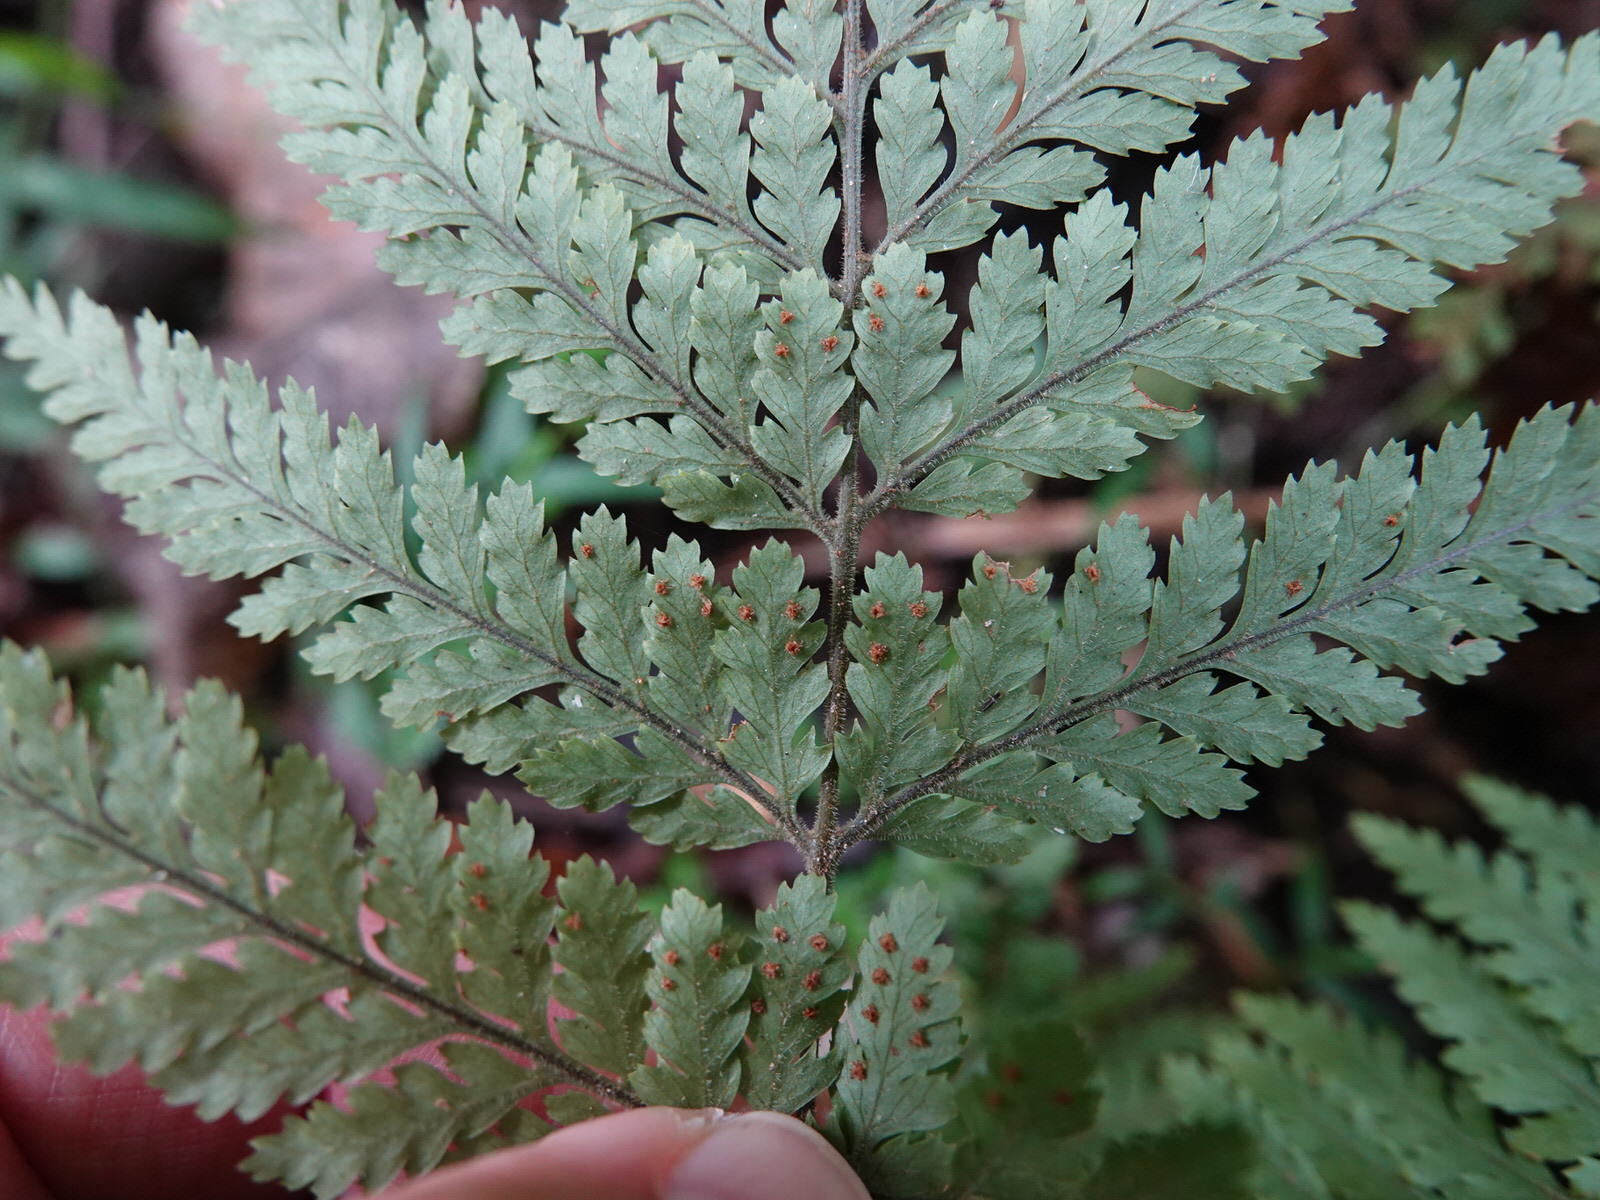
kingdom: Plantae
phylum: Tracheophyta
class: Polypodiopsida
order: Polypodiales
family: Dryopteridaceae
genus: Parapolystichum
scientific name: Parapolystichum microsorum
